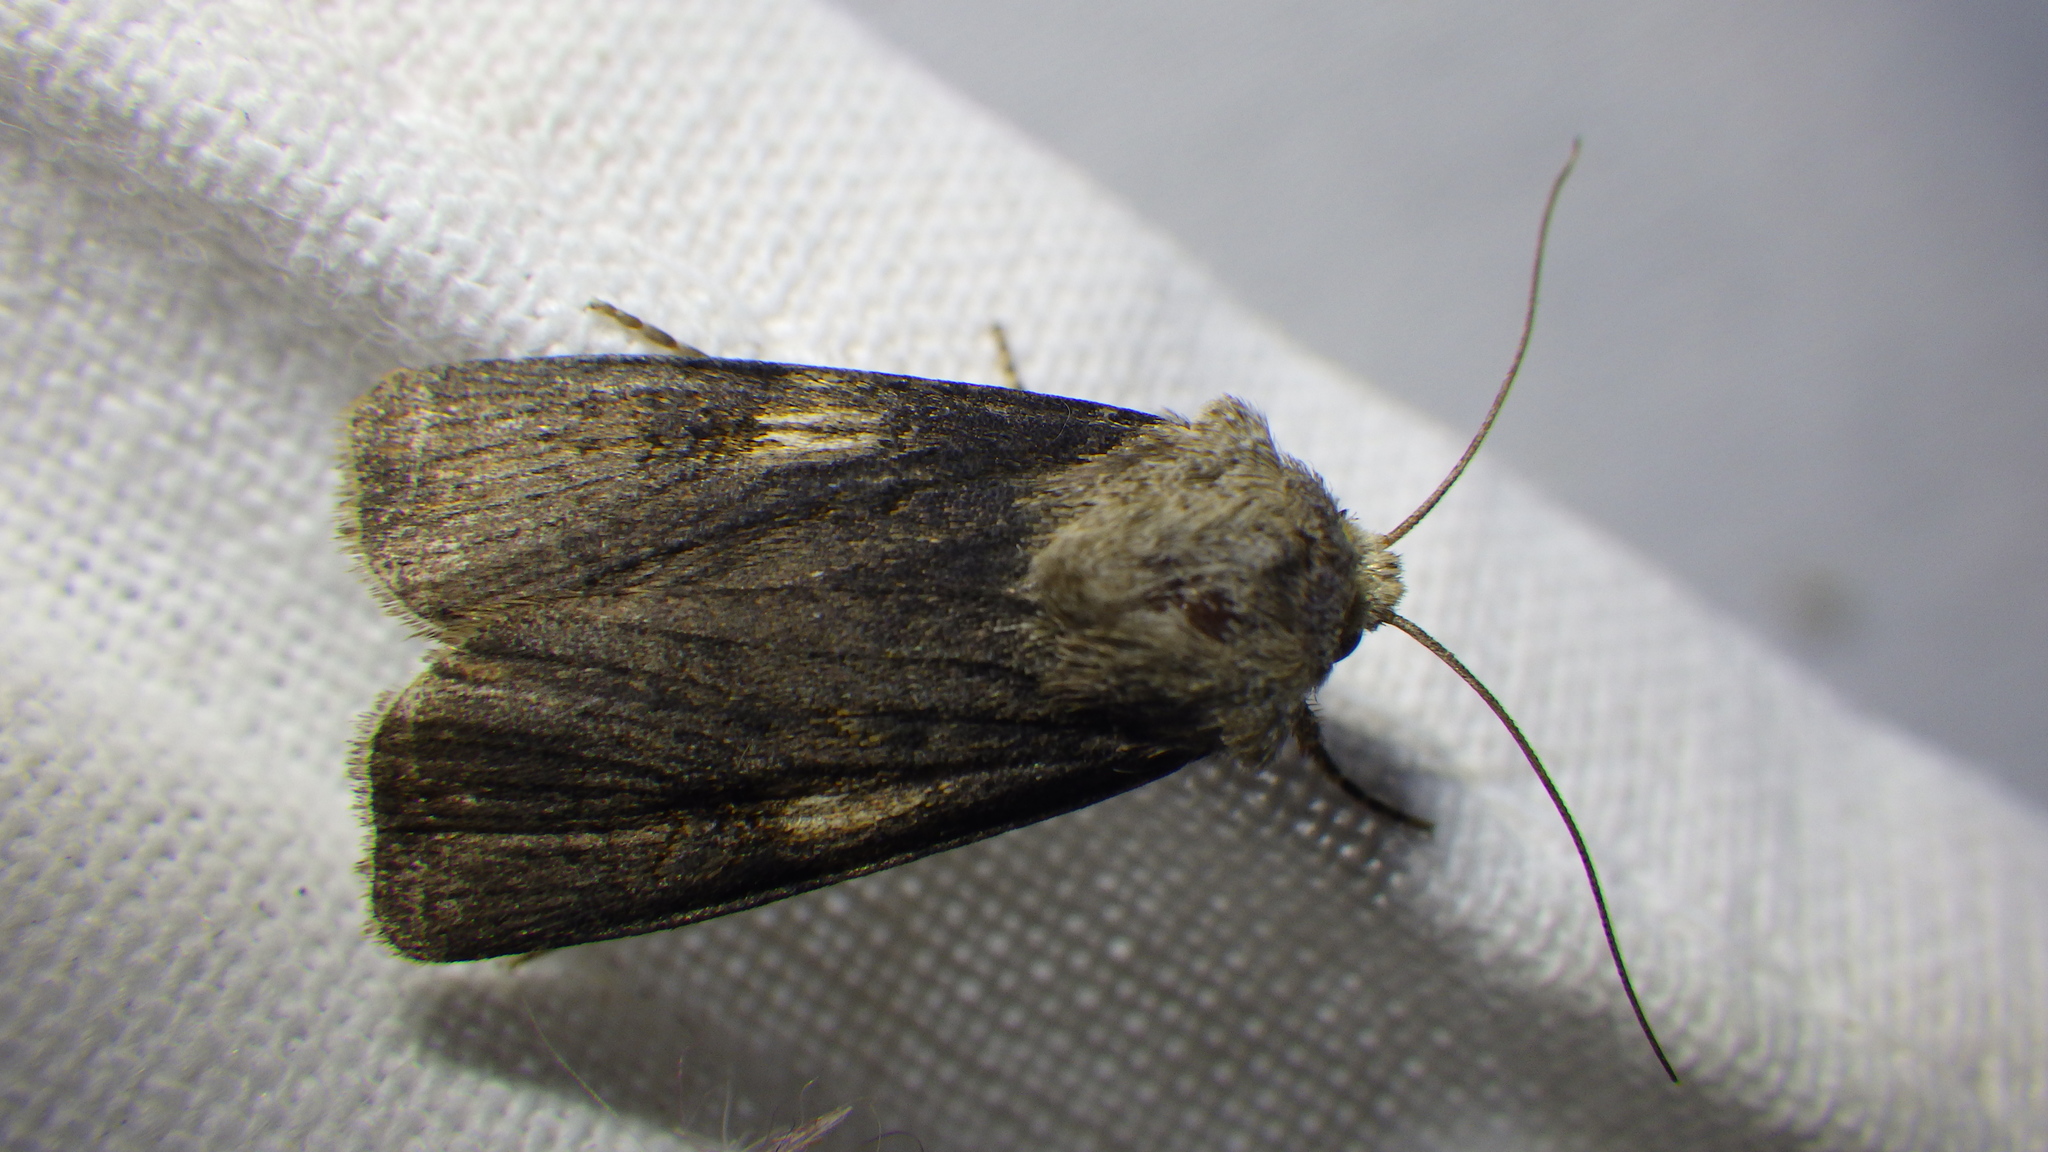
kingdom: Animalia
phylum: Arthropoda
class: Insecta
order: Lepidoptera
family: Noctuidae
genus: Agrotis
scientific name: Agrotis puta
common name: Shuttle-shaped dart
